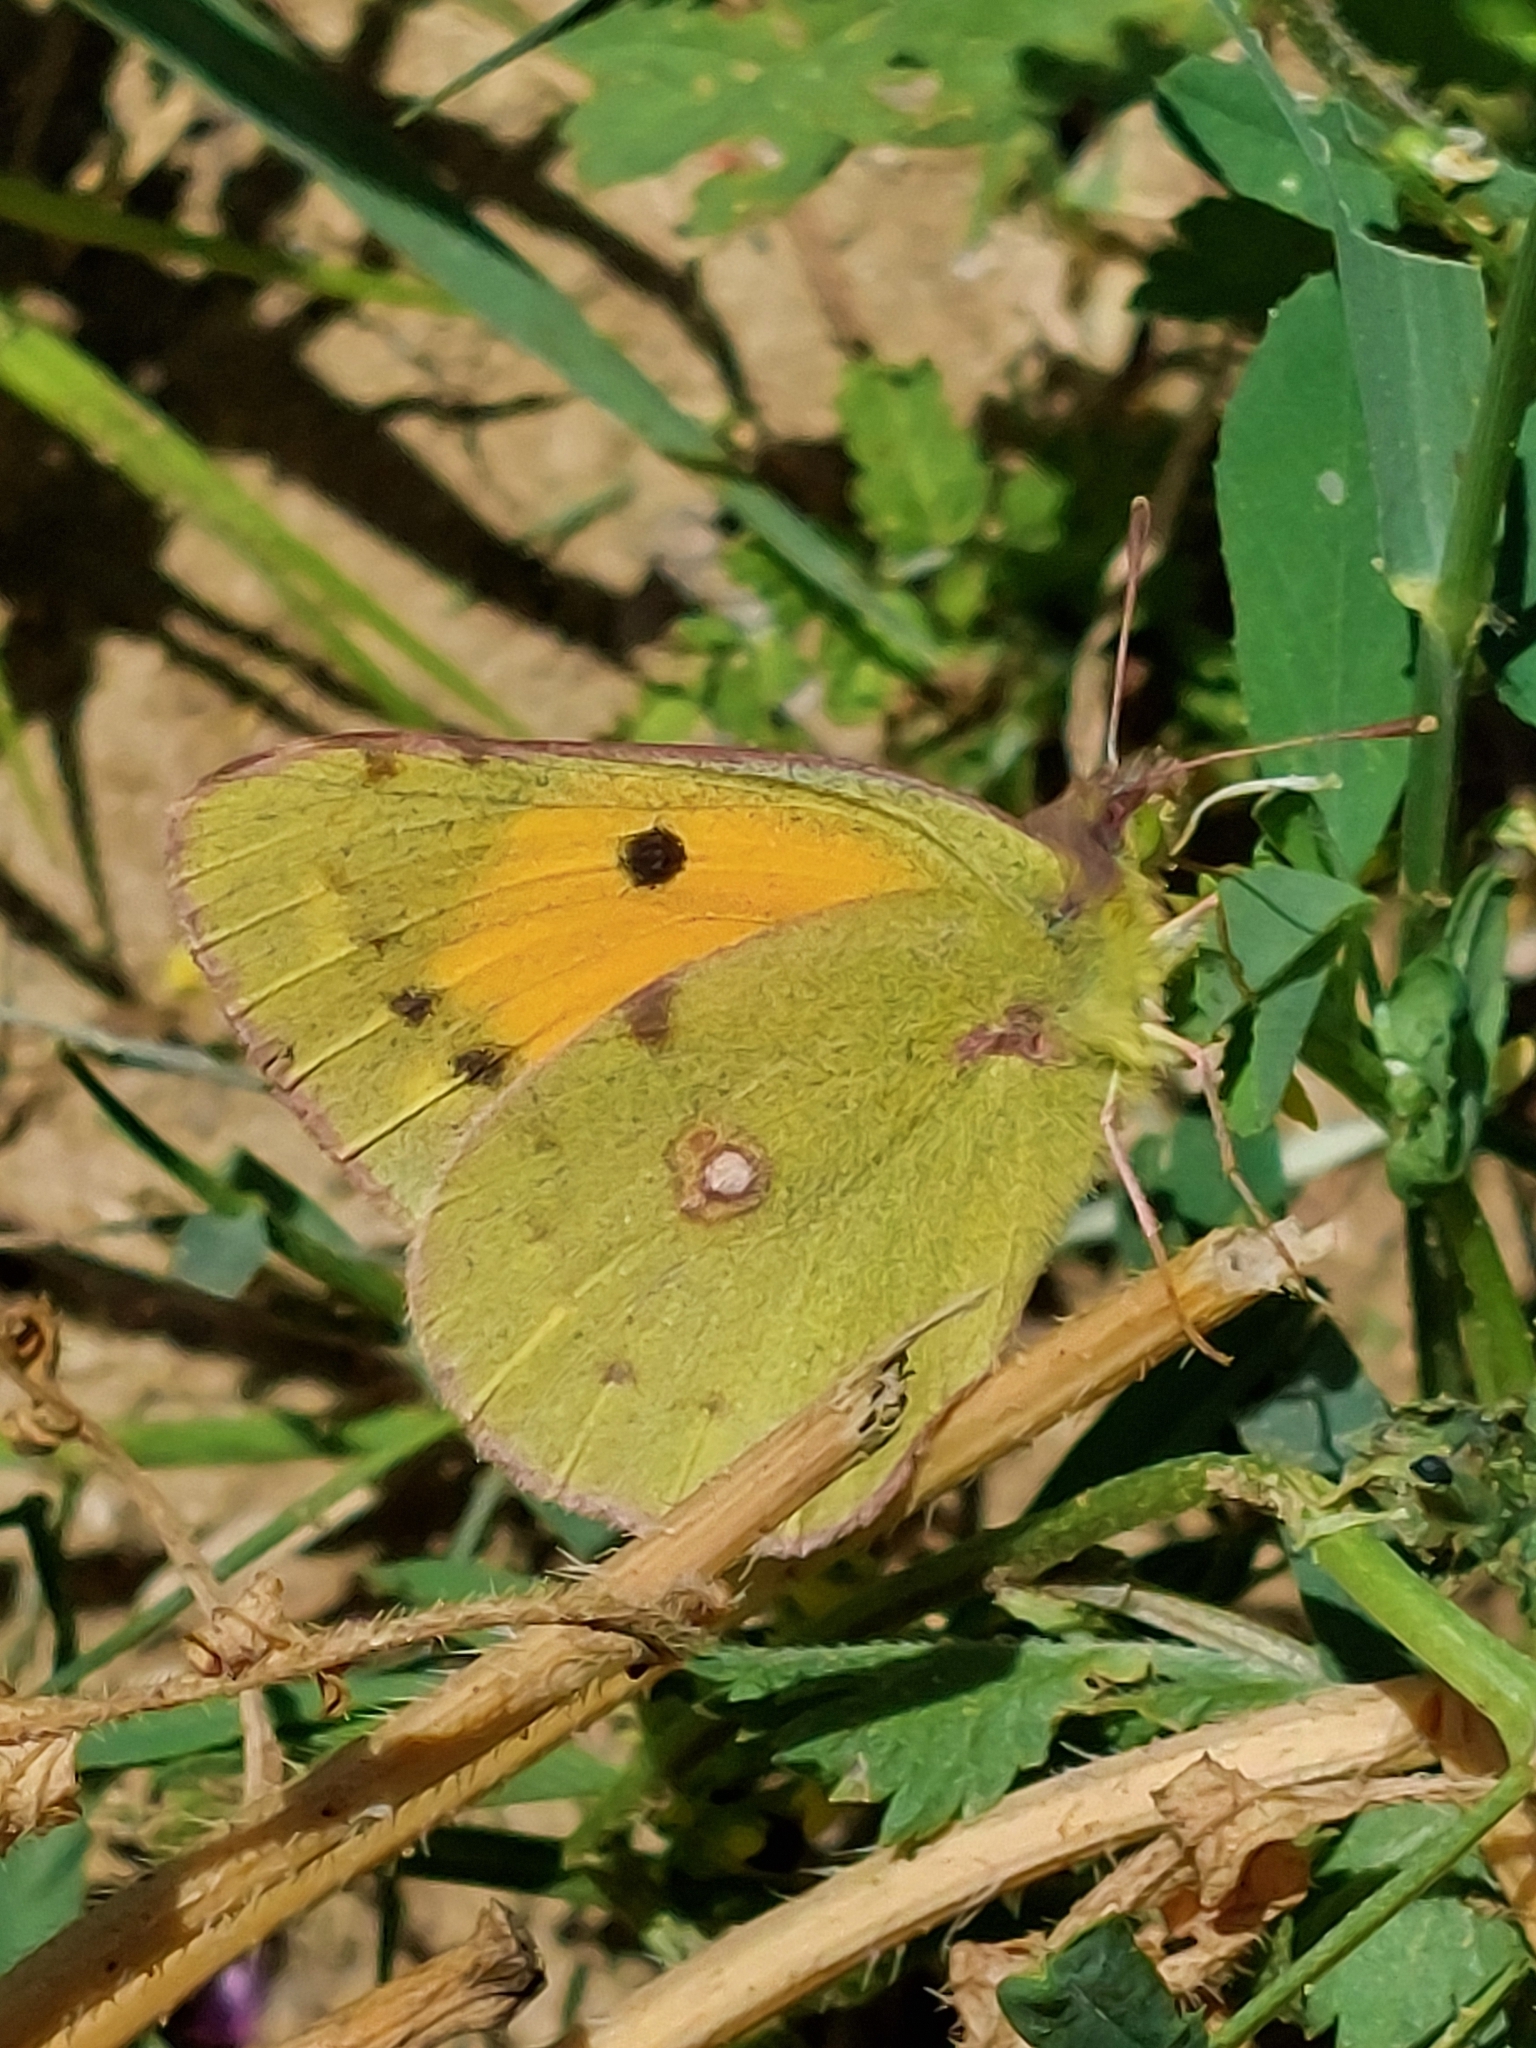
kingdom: Animalia
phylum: Arthropoda
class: Insecta
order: Lepidoptera
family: Pieridae
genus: Colias
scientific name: Colias croceus
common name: Clouded yellow
